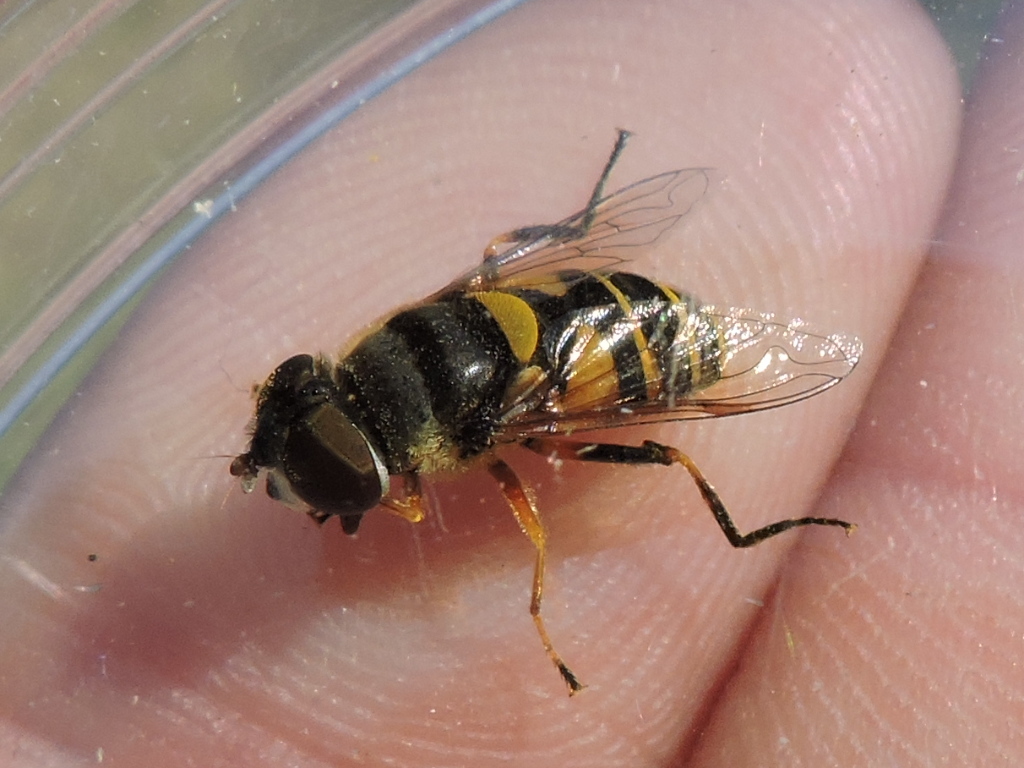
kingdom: Animalia
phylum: Arthropoda
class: Insecta
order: Diptera
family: Syrphidae
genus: Eristalis
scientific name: Eristalis transversa
